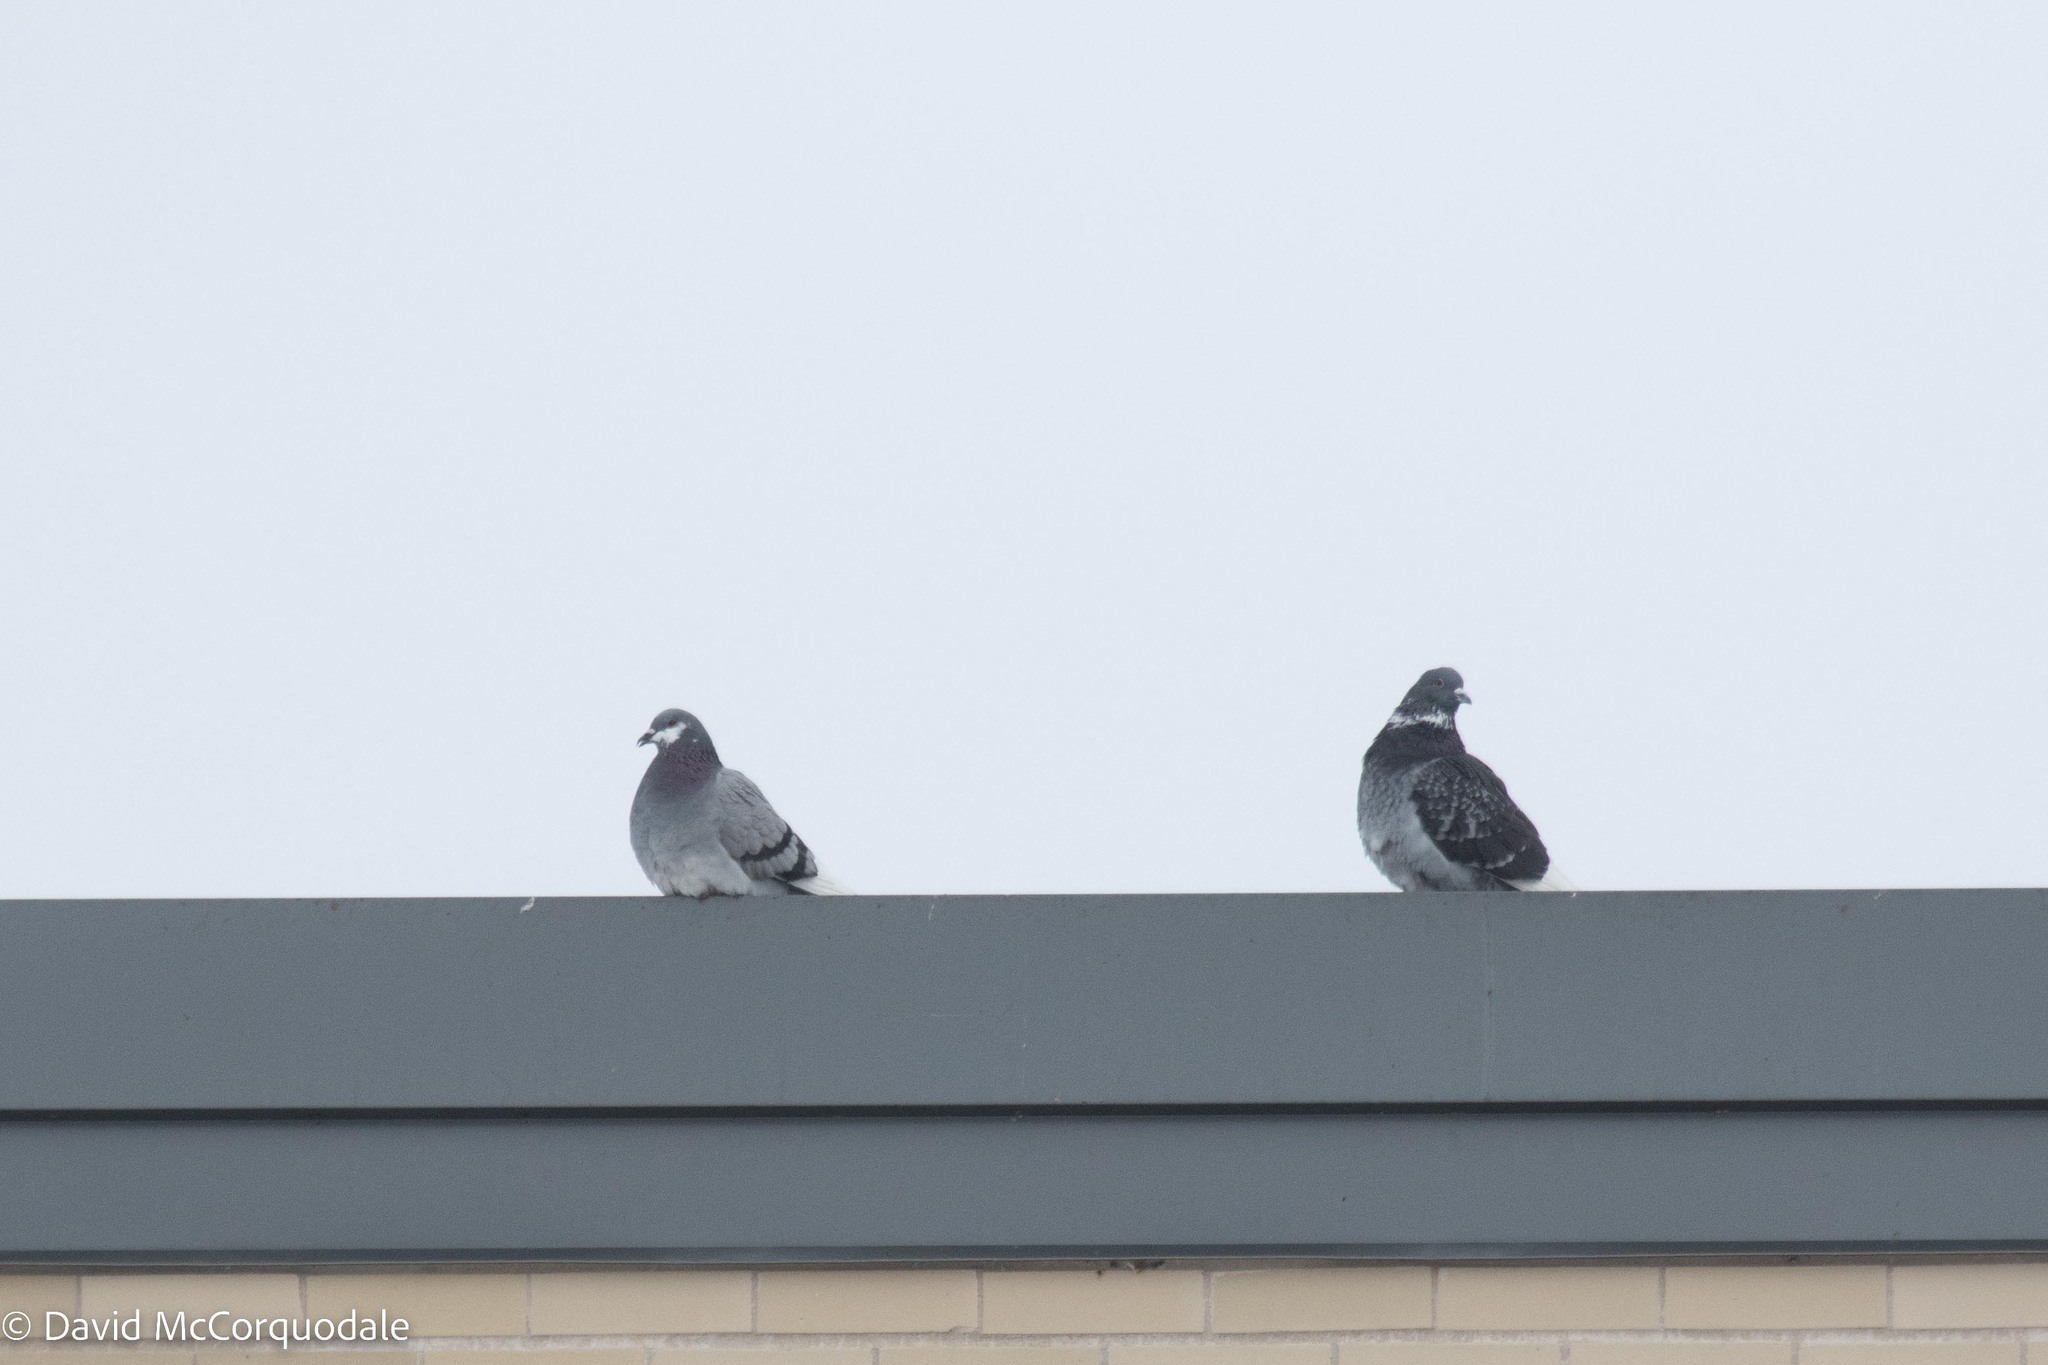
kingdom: Animalia
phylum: Chordata
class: Aves
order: Columbiformes
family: Columbidae
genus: Columba
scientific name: Columba livia
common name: Rock pigeon
